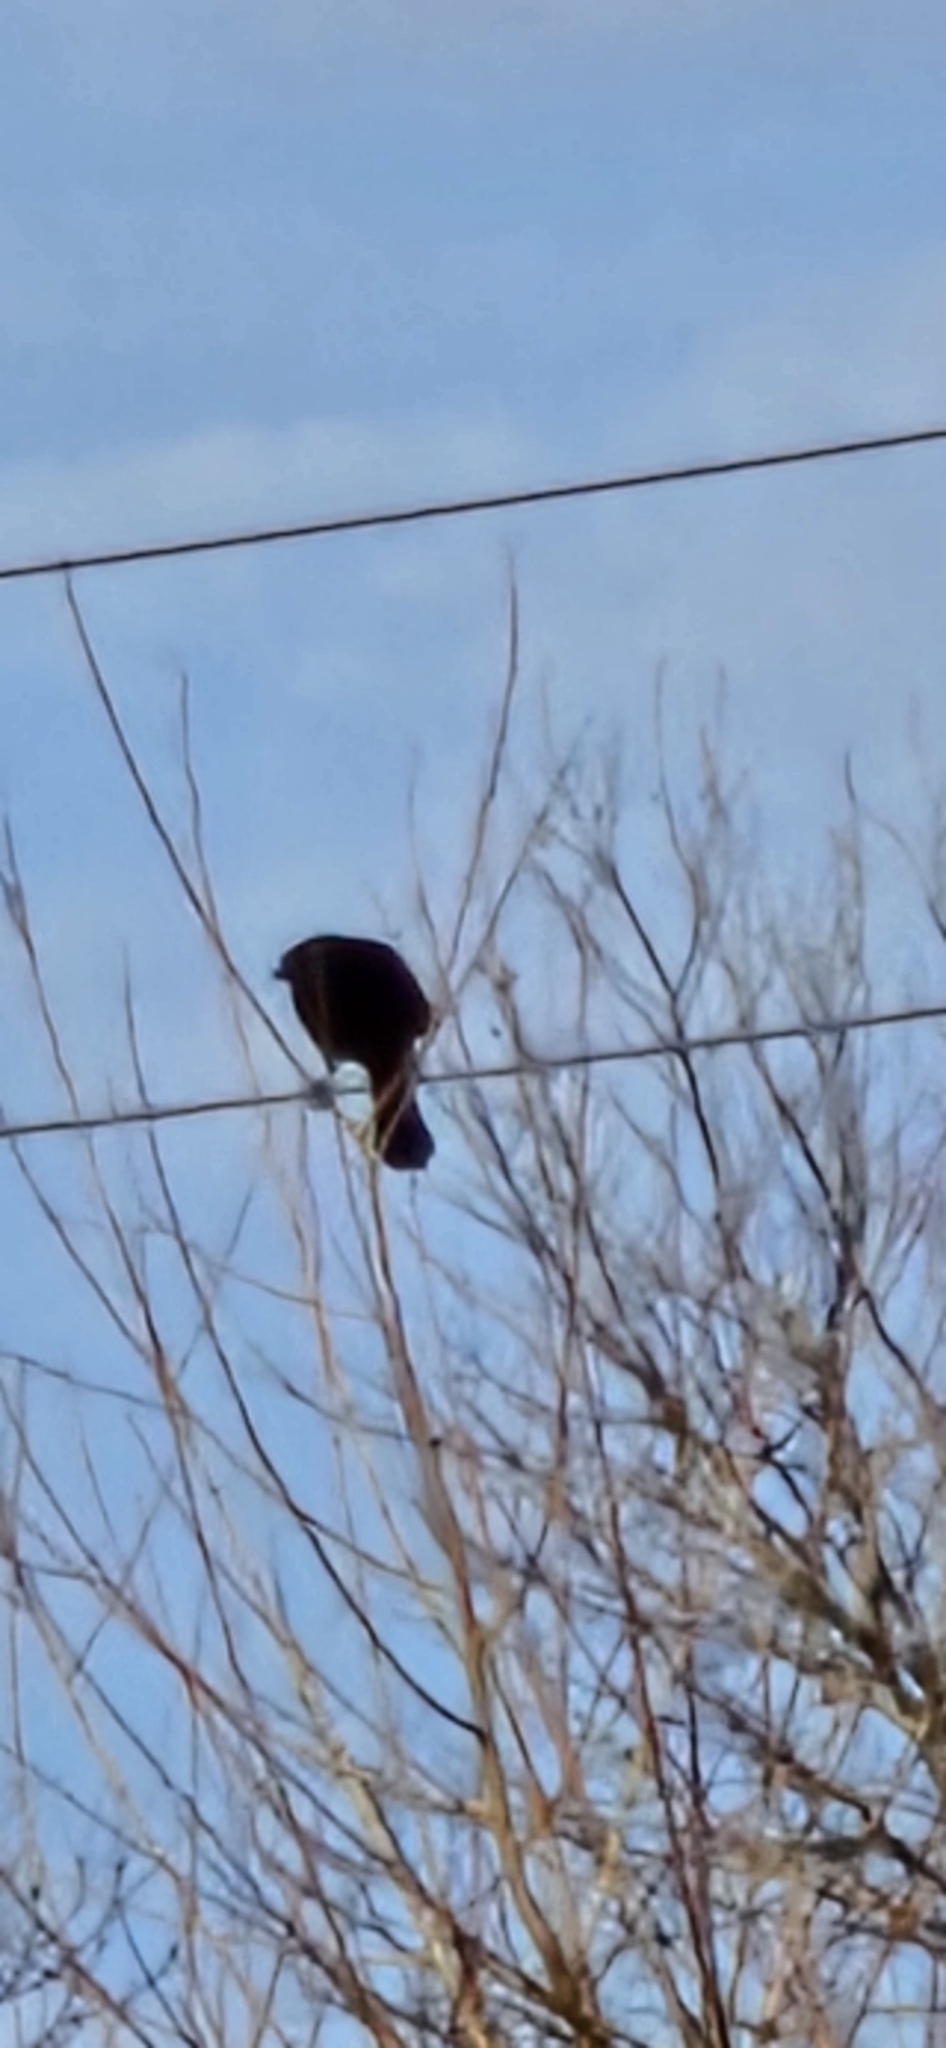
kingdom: Animalia
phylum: Chordata
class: Aves
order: Passeriformes
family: Icteridae
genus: Agelaius
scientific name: Agelaius phoeniceus
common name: Red-winged blackbird
